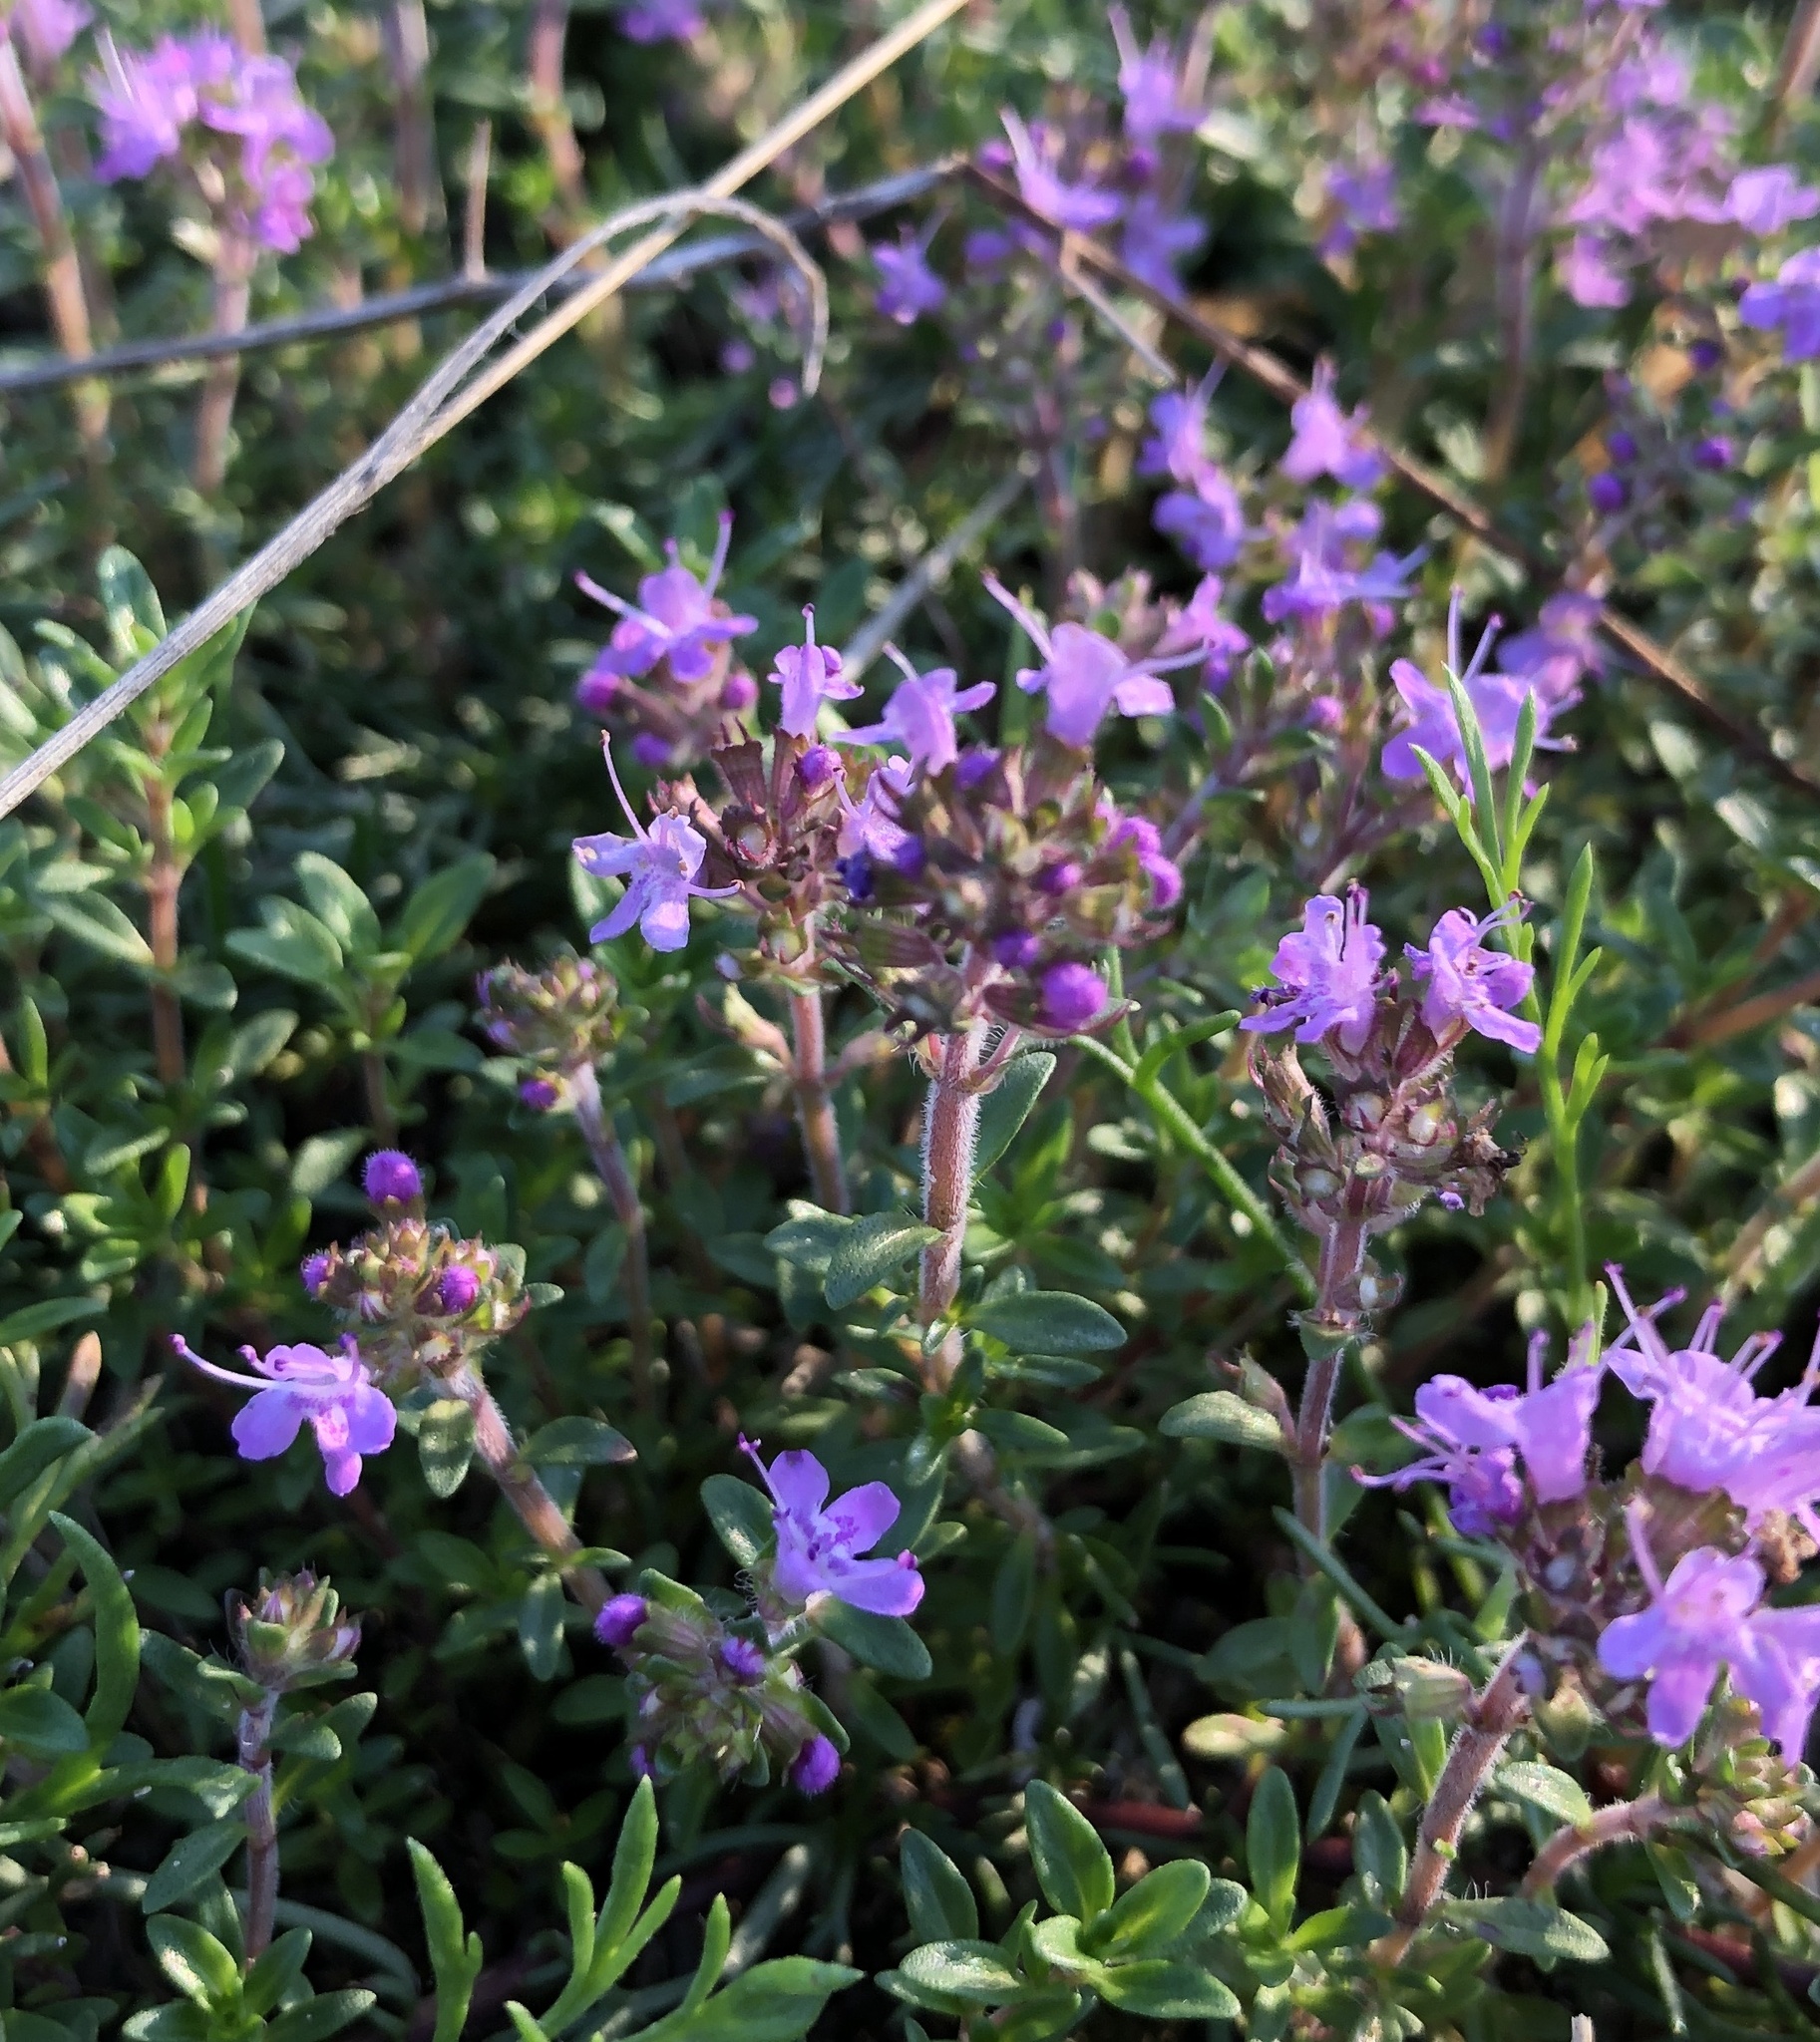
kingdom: Plantae
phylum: Tracheophyta
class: Magnoliopsida
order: Lamiales
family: Lamiaceae
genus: Thymus
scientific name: Thymus serpyllum
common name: Breckland thyme
